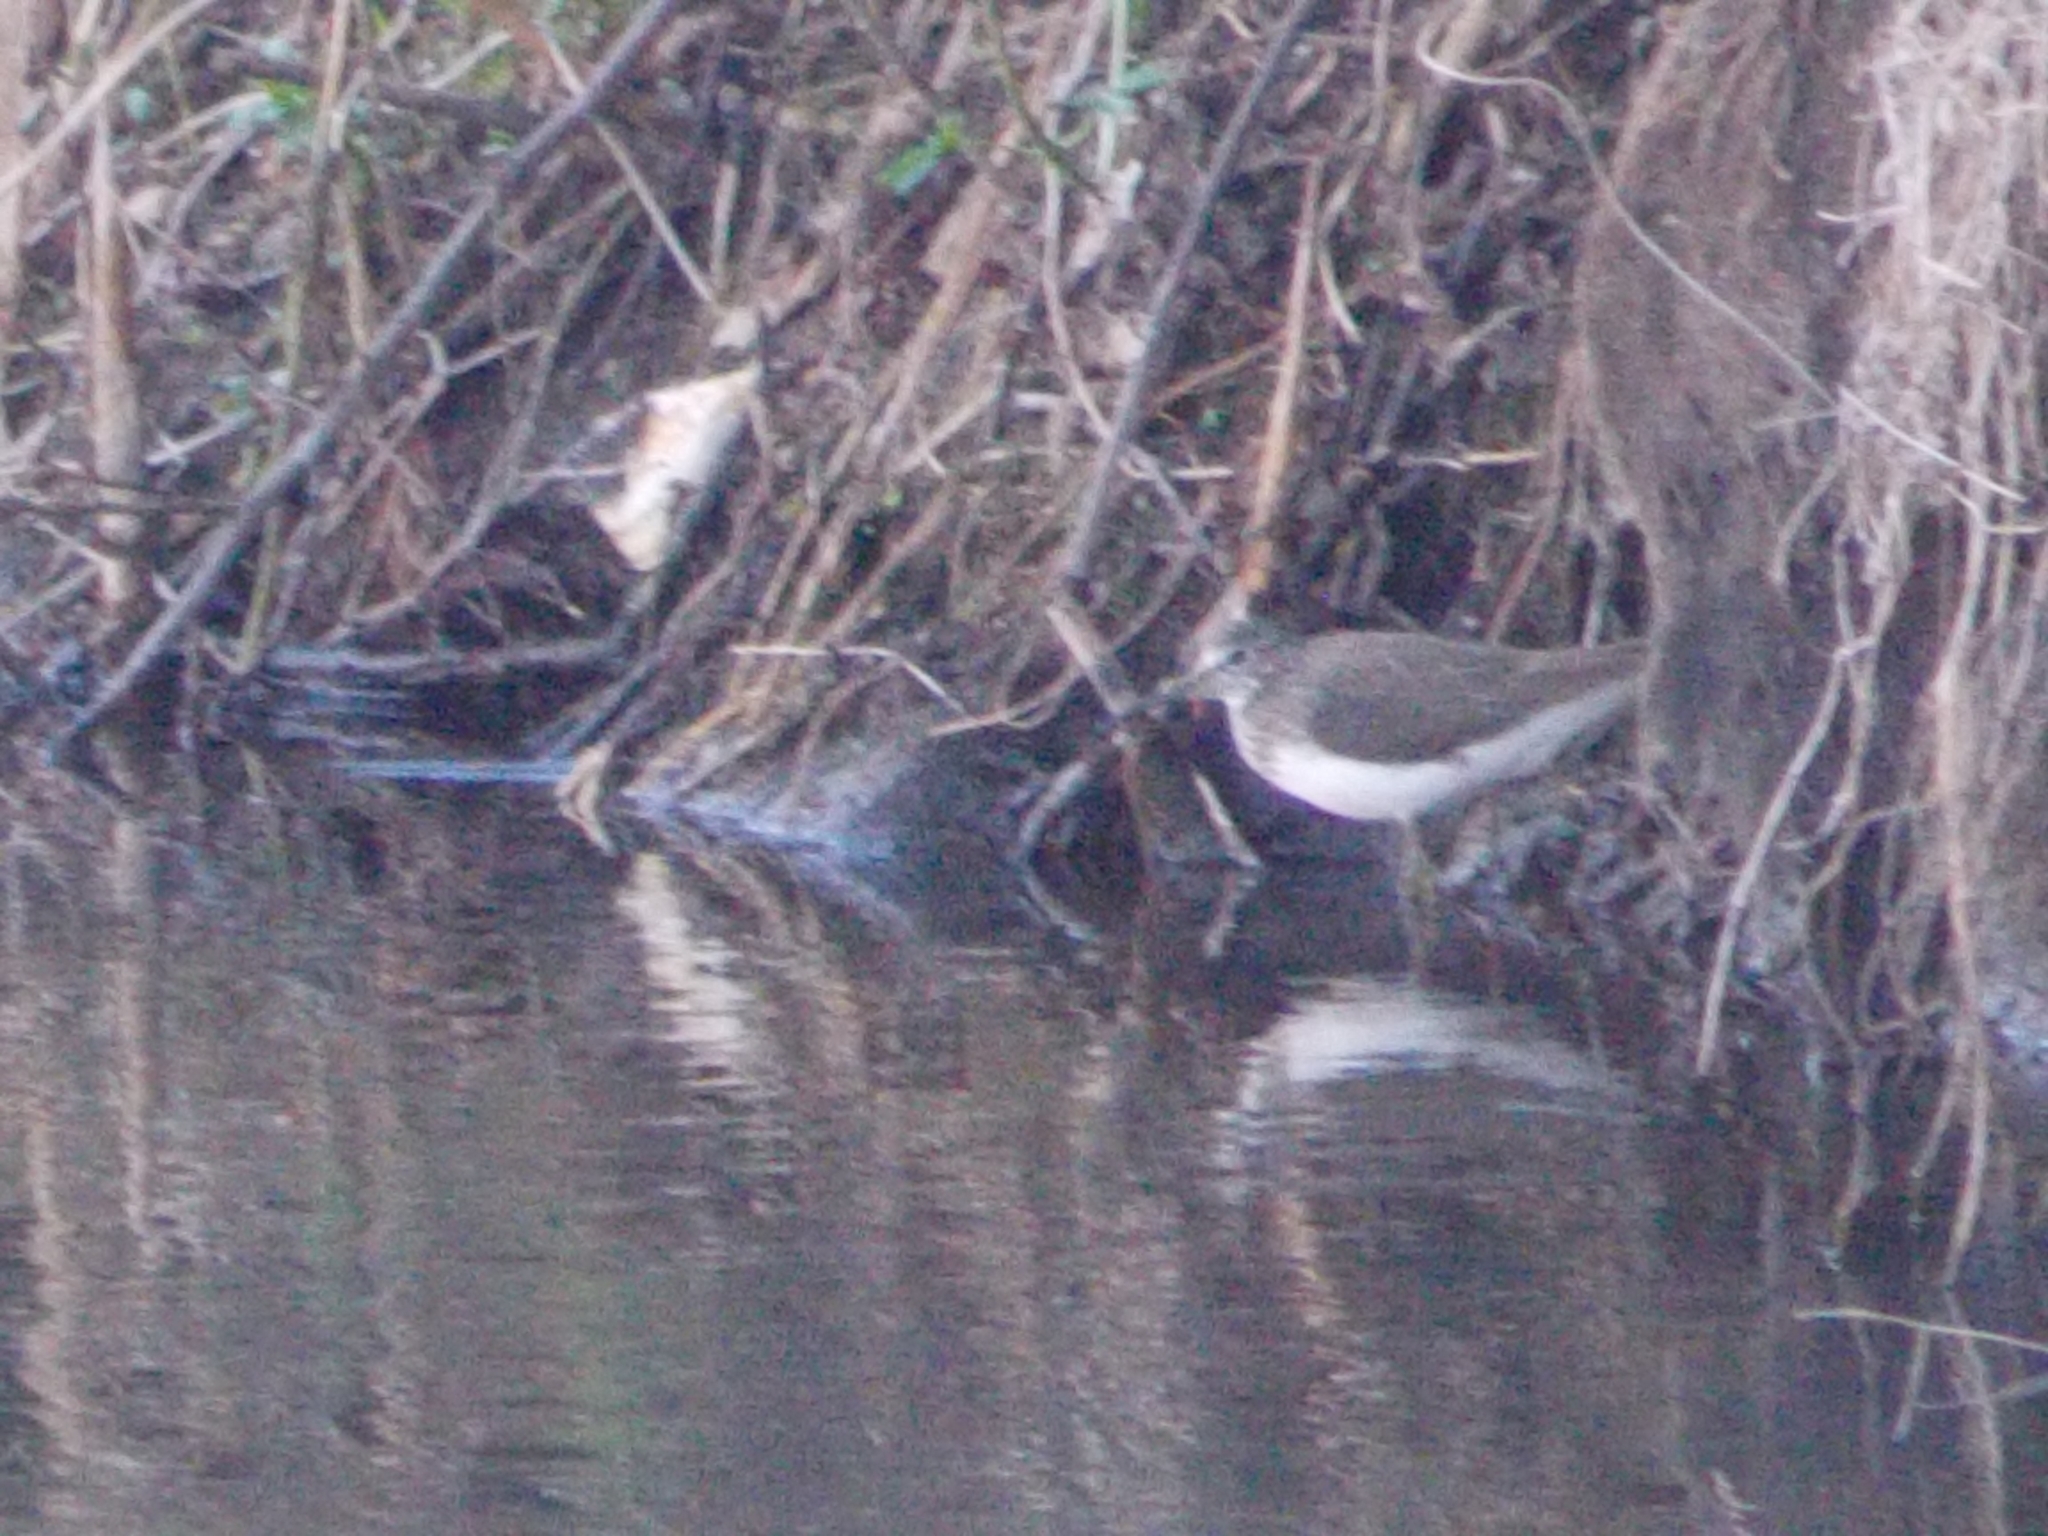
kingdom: Animalia
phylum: Chordata
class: Aves
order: Charadriiformes
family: Scolopacidae
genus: Tringa
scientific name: Tringa ochropus
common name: Green sandpiper
